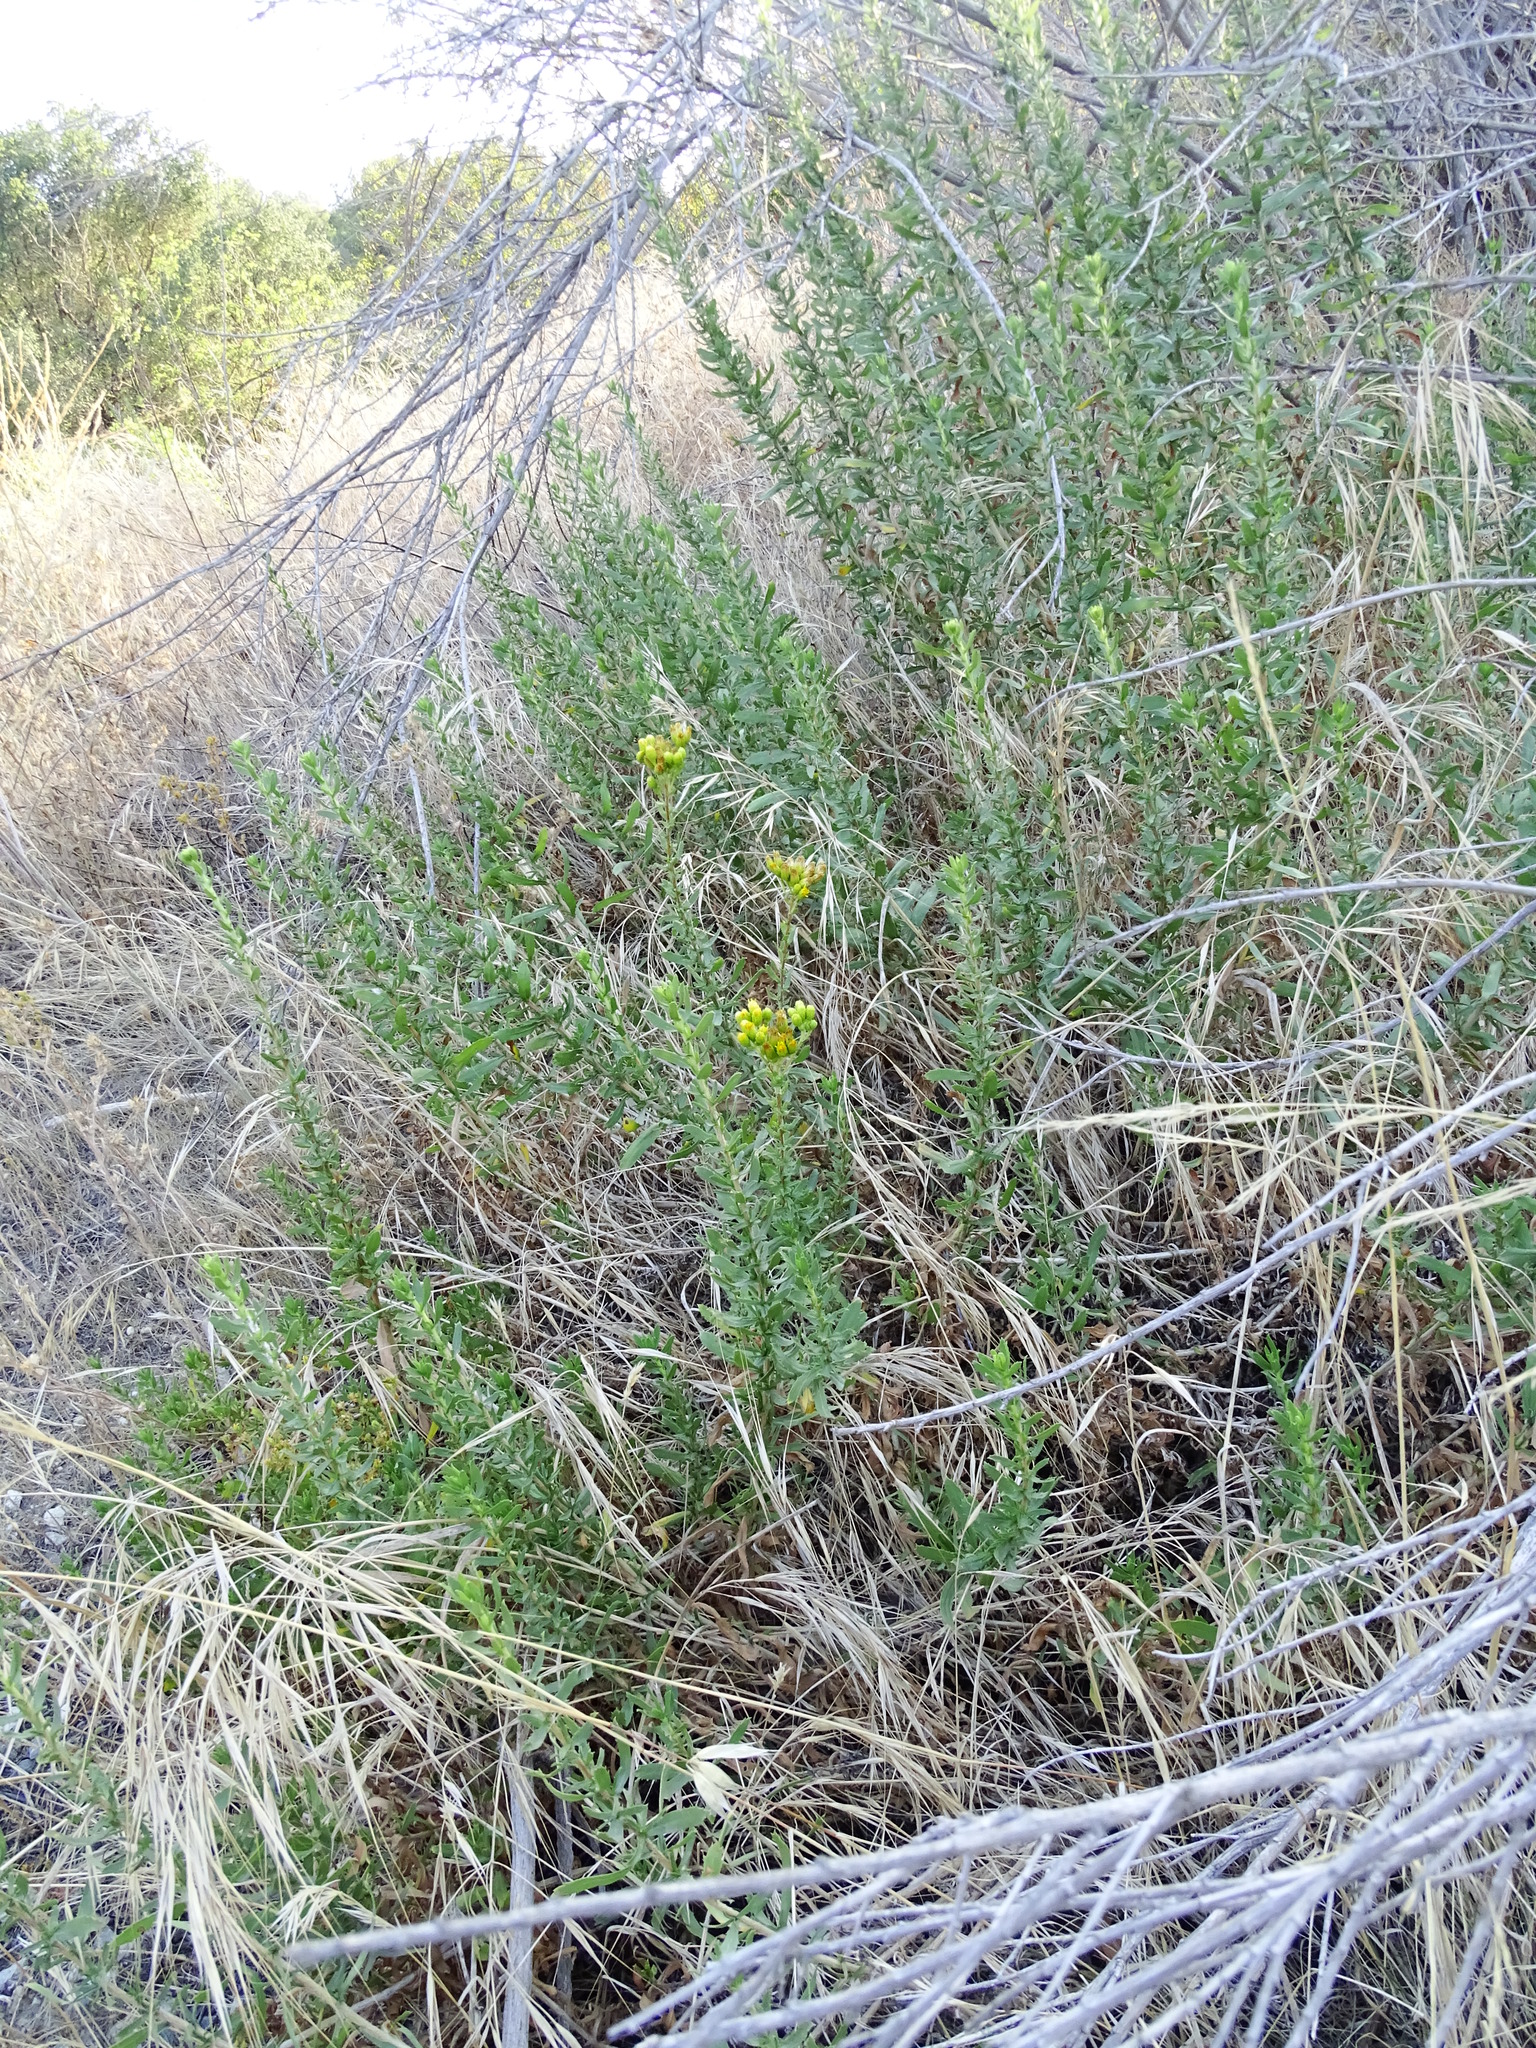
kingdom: Plantae
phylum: Tracheophyta
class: Magnoliopsida
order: Asterales
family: Asteraceae
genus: Isocoma
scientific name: Isocoma menziesii
